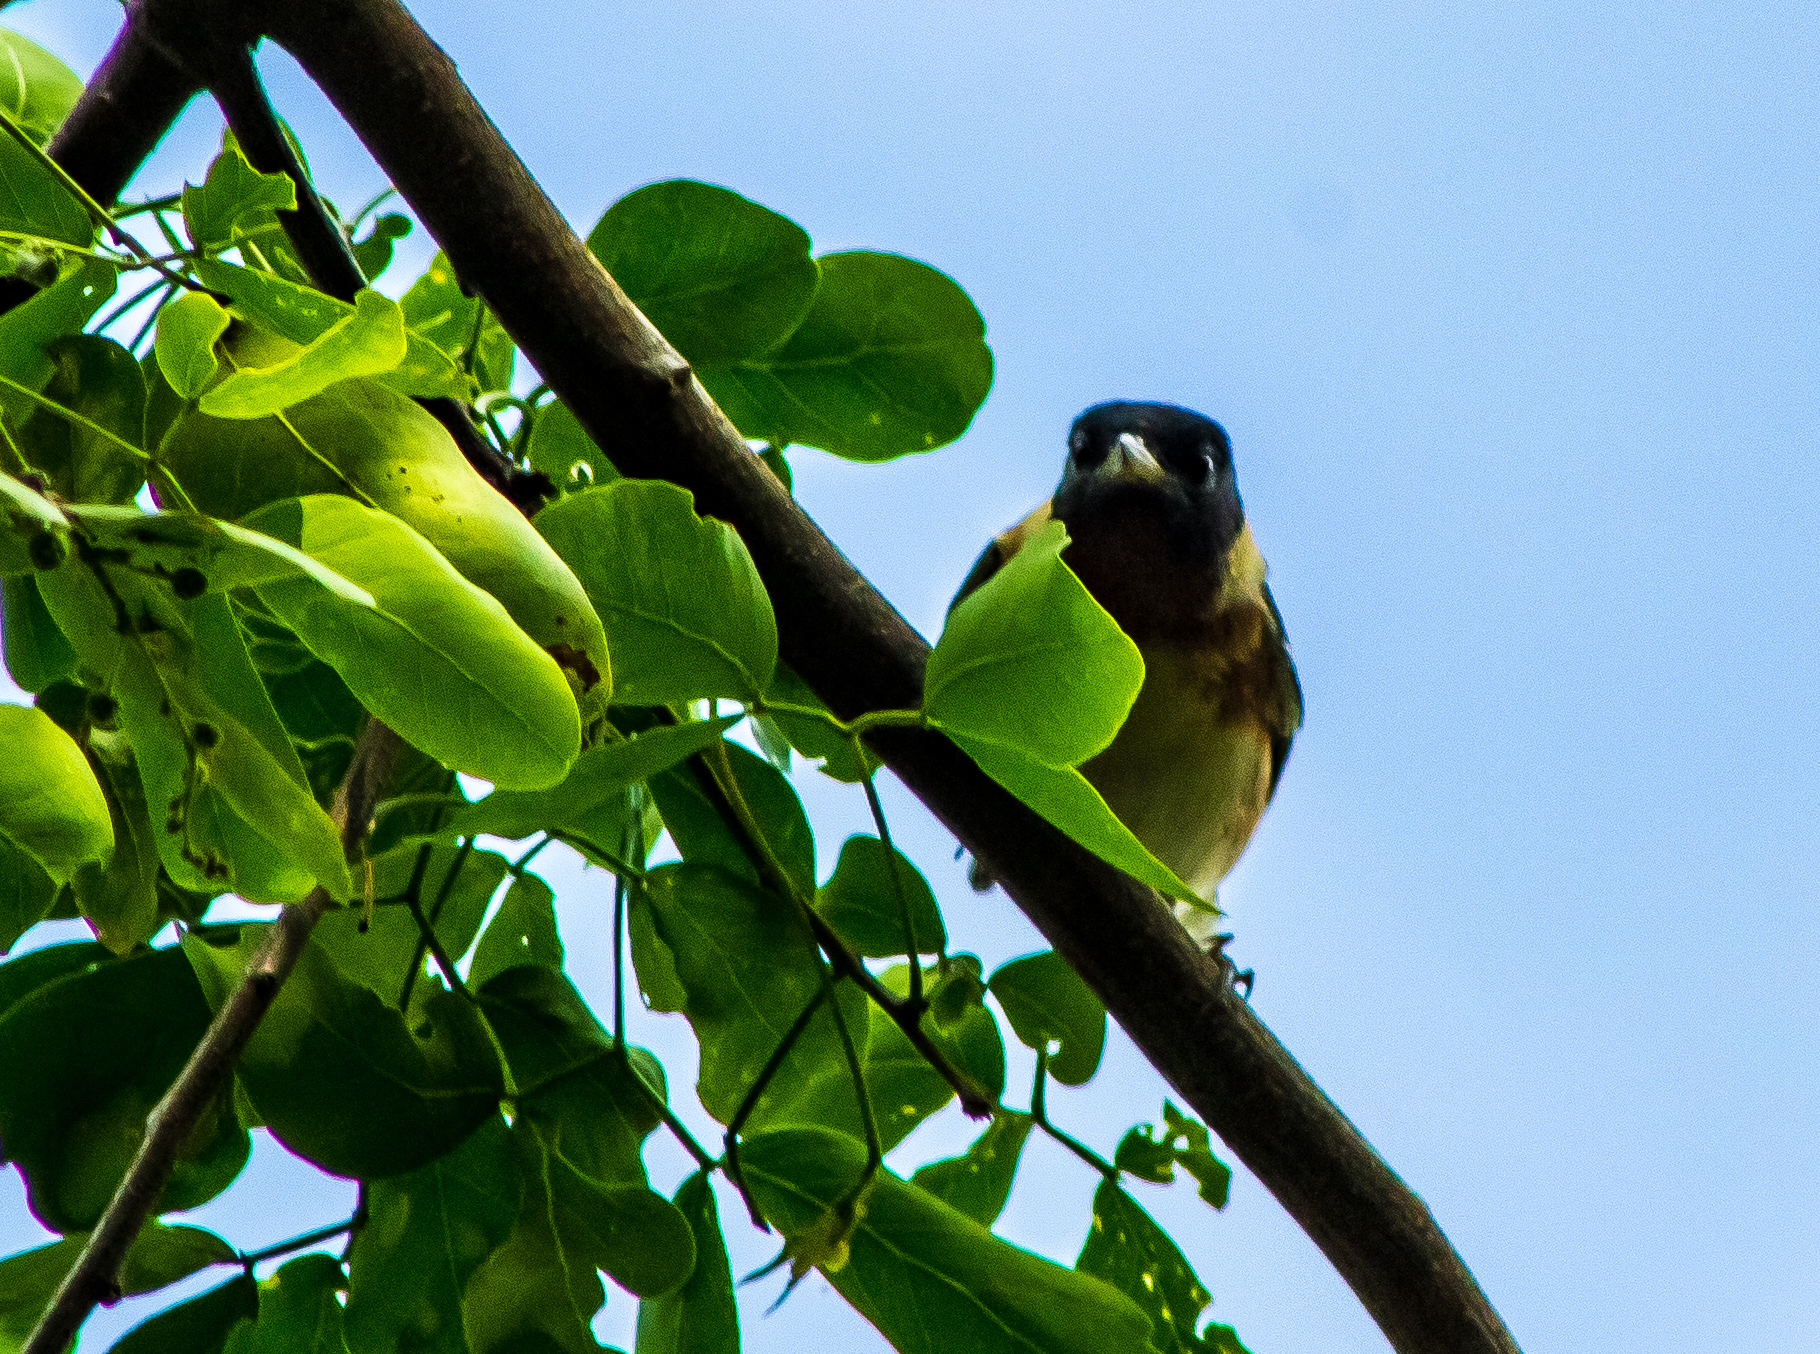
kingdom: Animalia
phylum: Chordata
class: Aves
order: Passeriformes
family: Parulidae
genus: Setophaga
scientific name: Setophaga castanea
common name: Bay-breasted warbler
